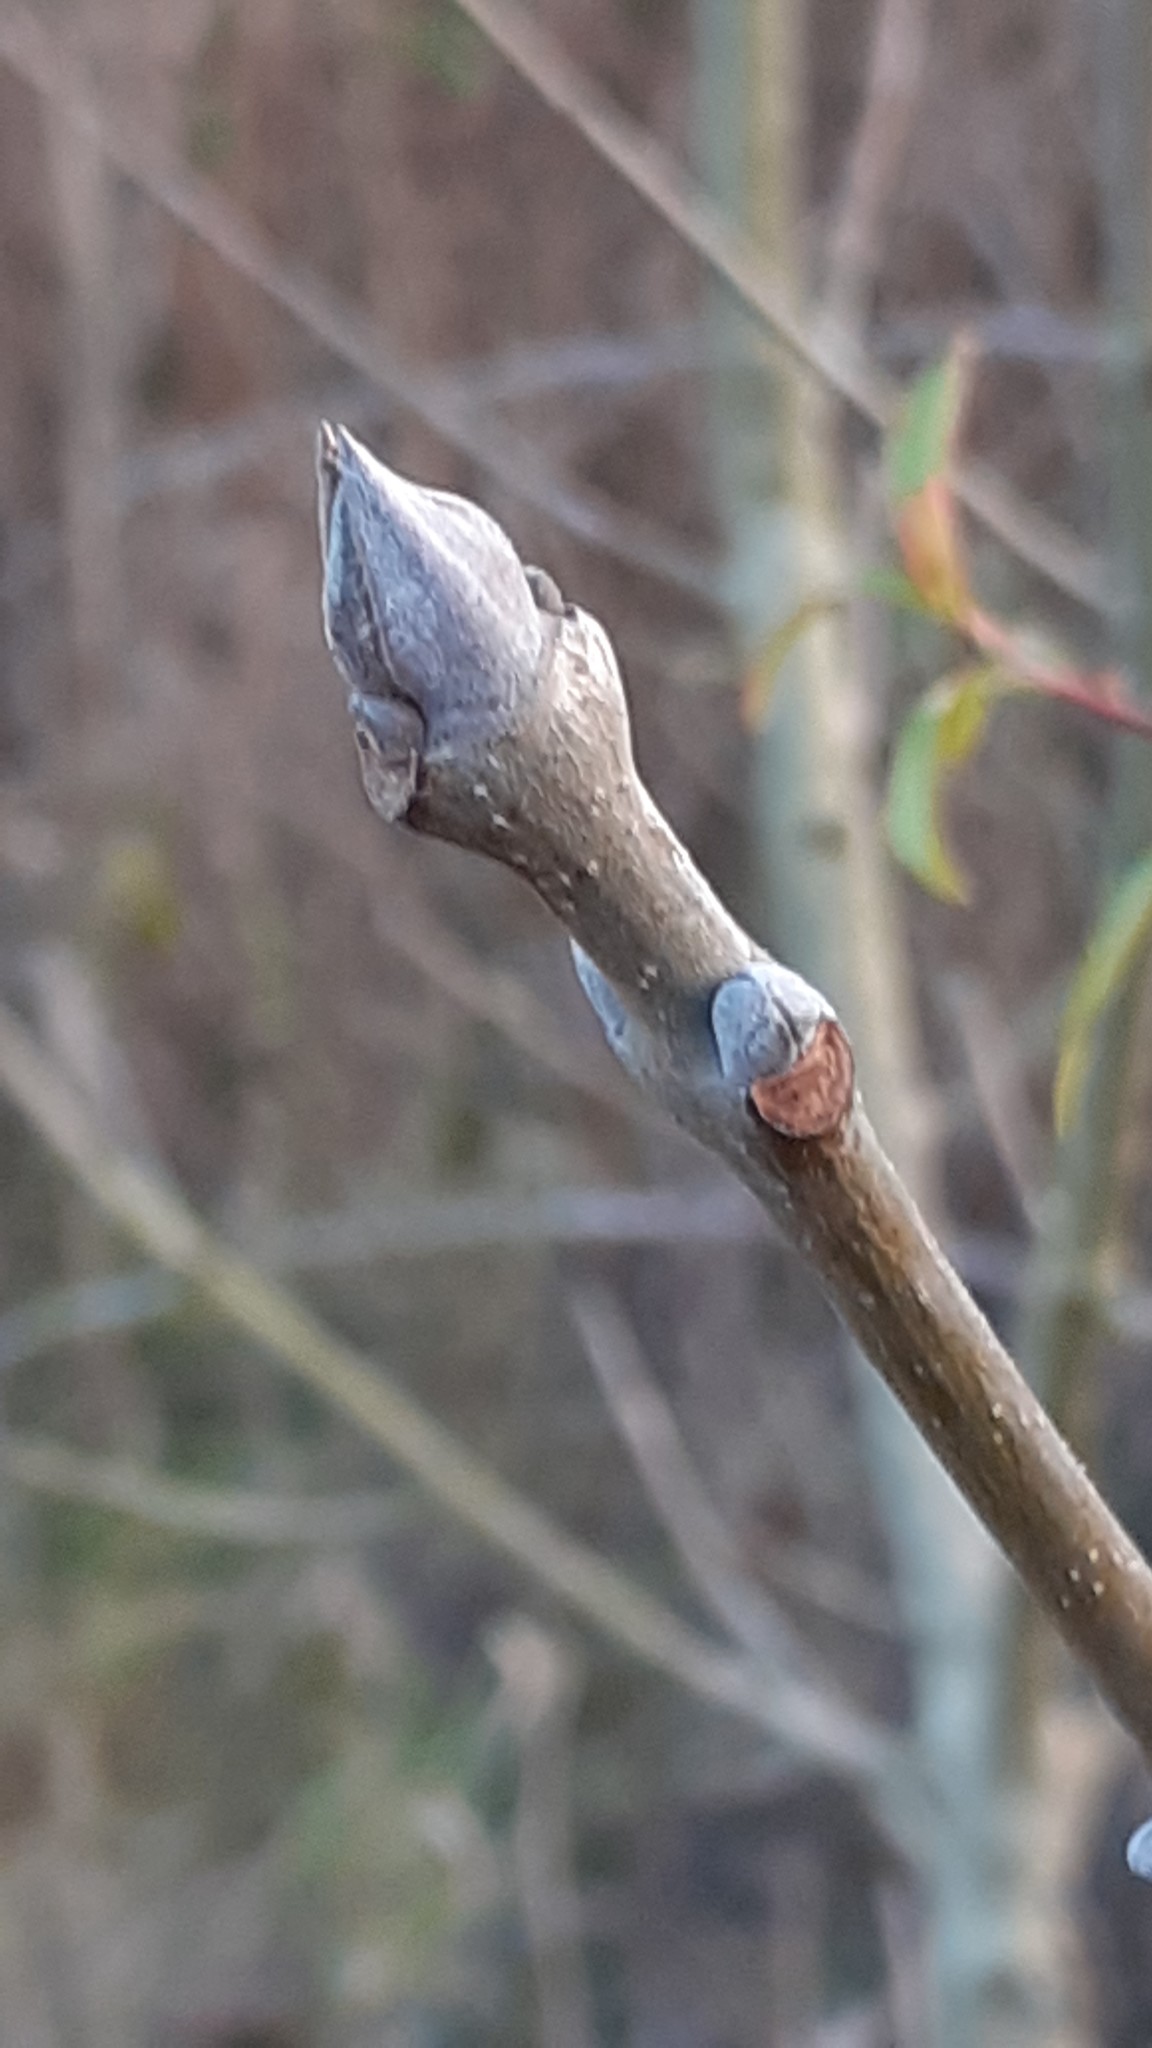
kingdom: Plantae
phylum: Tracheophyta
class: Magnoliopsida
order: Lamiales
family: Oleaceae
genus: Fraxinus
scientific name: Fraxinus ornus
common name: Manna ash
